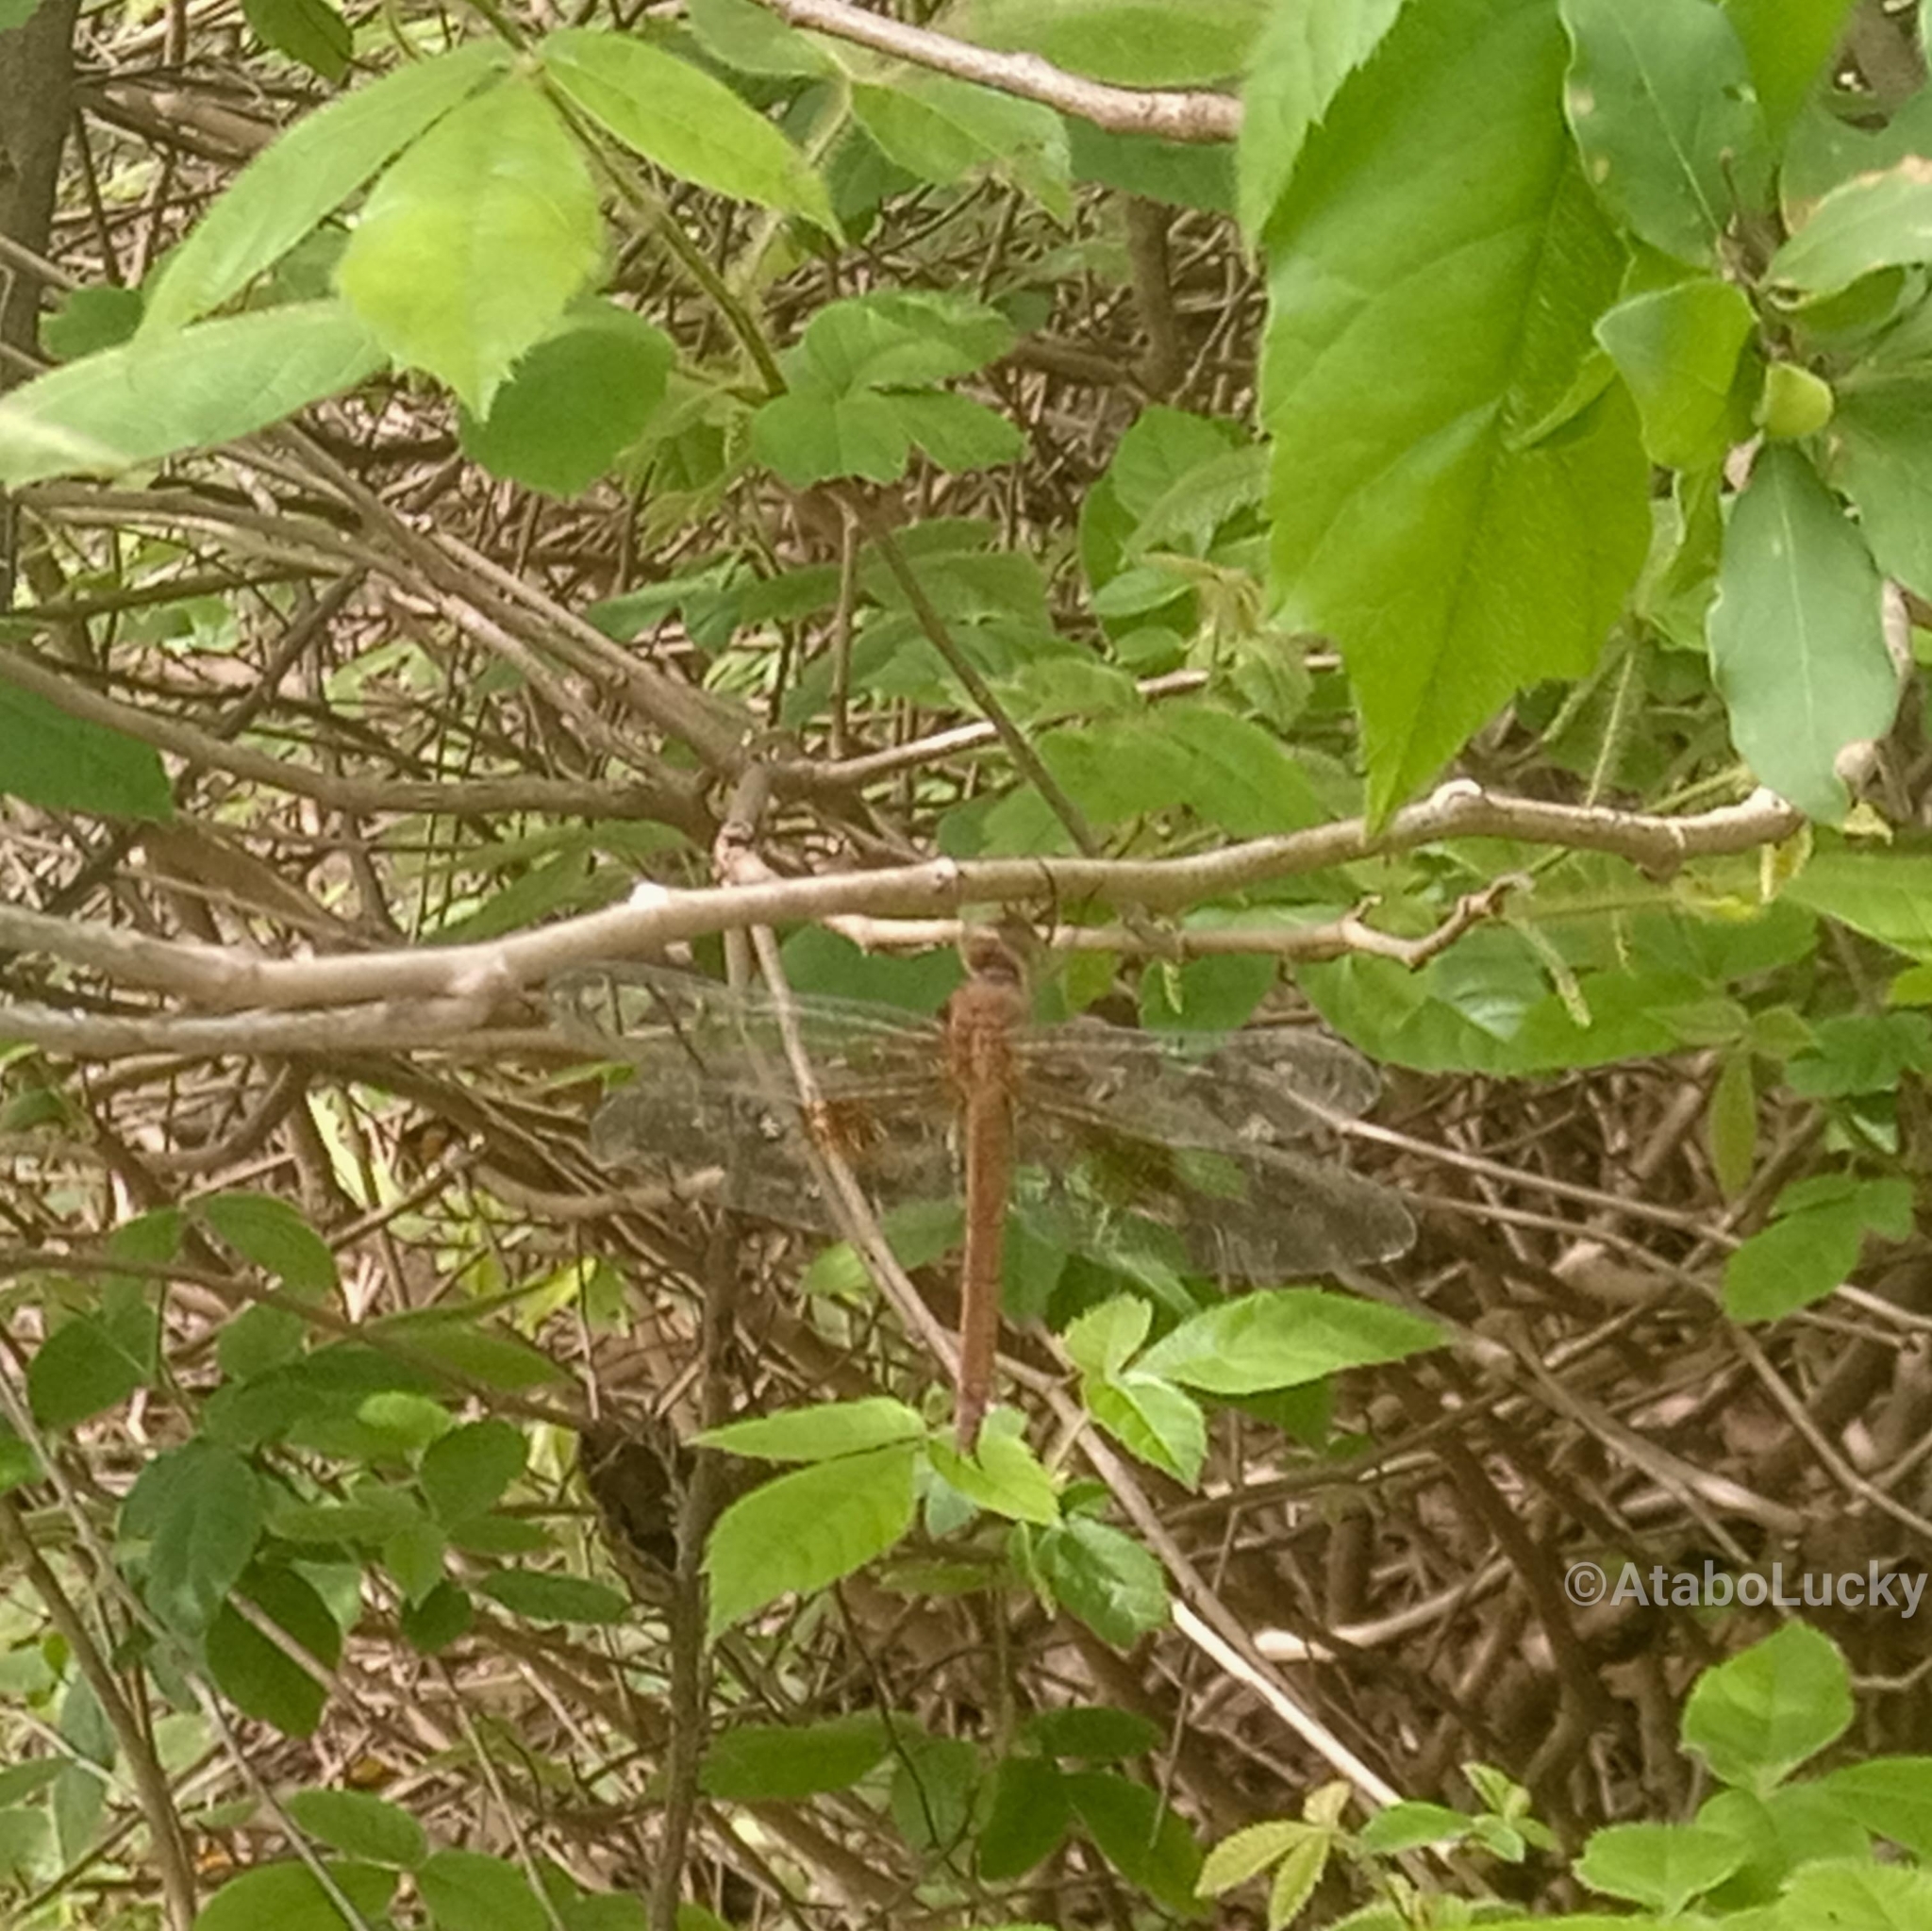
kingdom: Animalia
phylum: Arthropoda
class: Insecta
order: Odonata
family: Libellulidae
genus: Tholymis
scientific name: Tholymis tillarga
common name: Coral-tailed cloud wing
